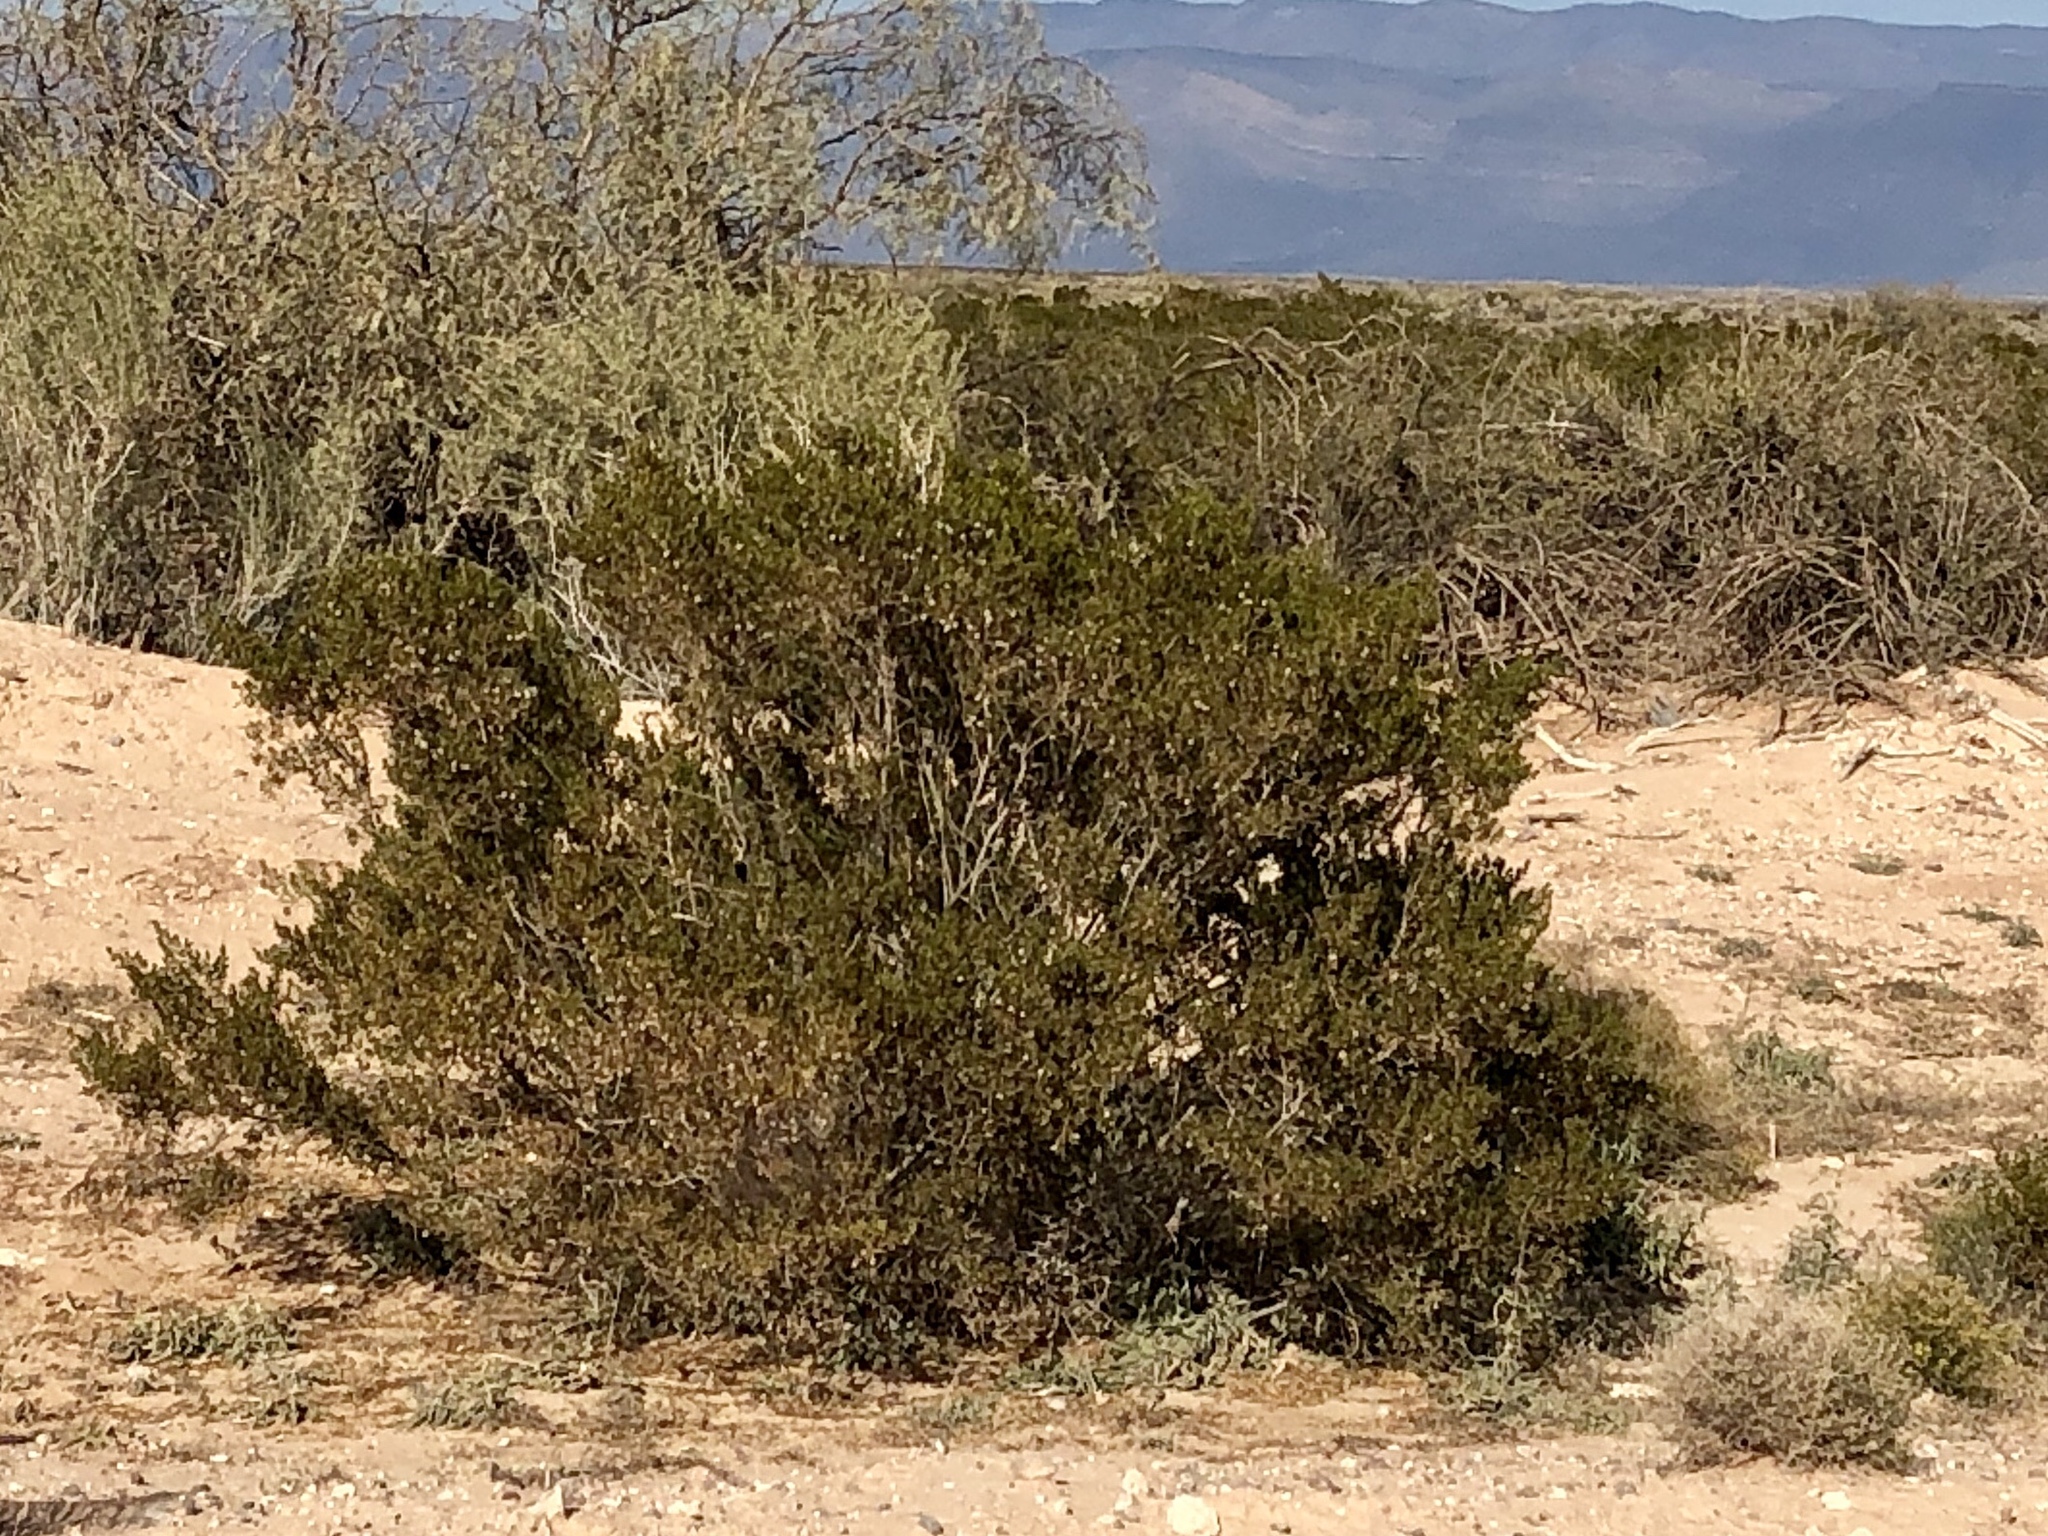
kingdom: Plantae
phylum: Tracheophyta
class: Magnoliopsida
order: Zygophyllales
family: Zygophyllaceae
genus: Larrea
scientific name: Larrea tridentata
